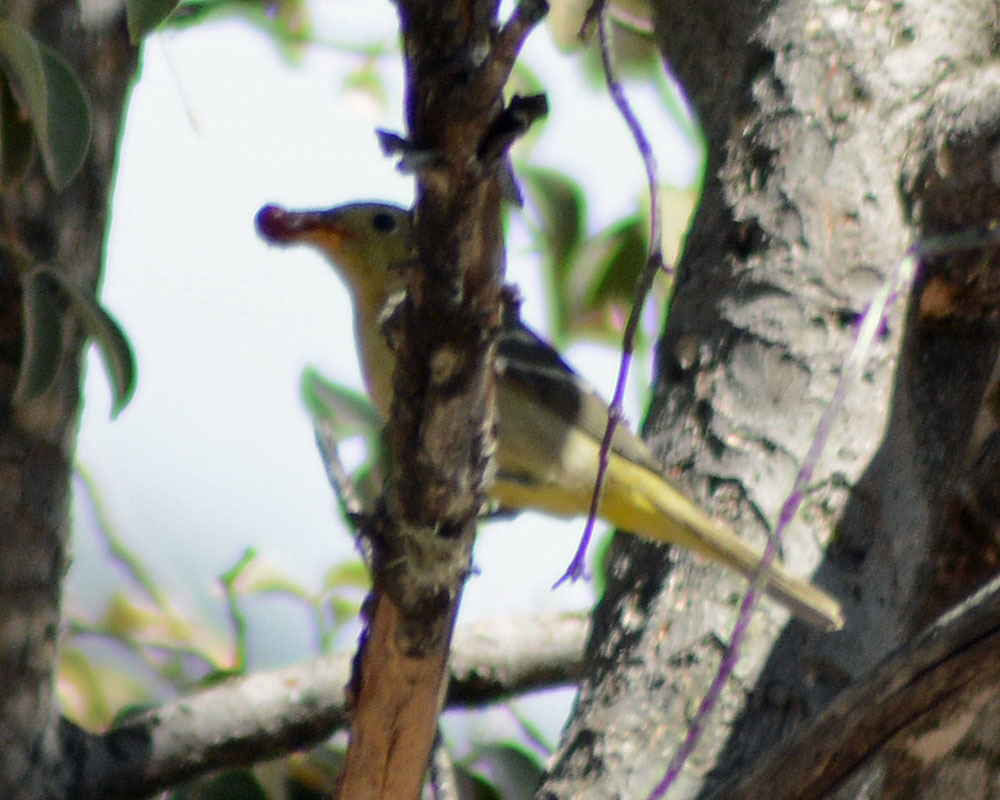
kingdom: Animalia
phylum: Chordata
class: Aves
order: Passeriformes
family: Cardinalidae
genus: Piranga
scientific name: Piranga ludoviciana
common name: Western tanager
